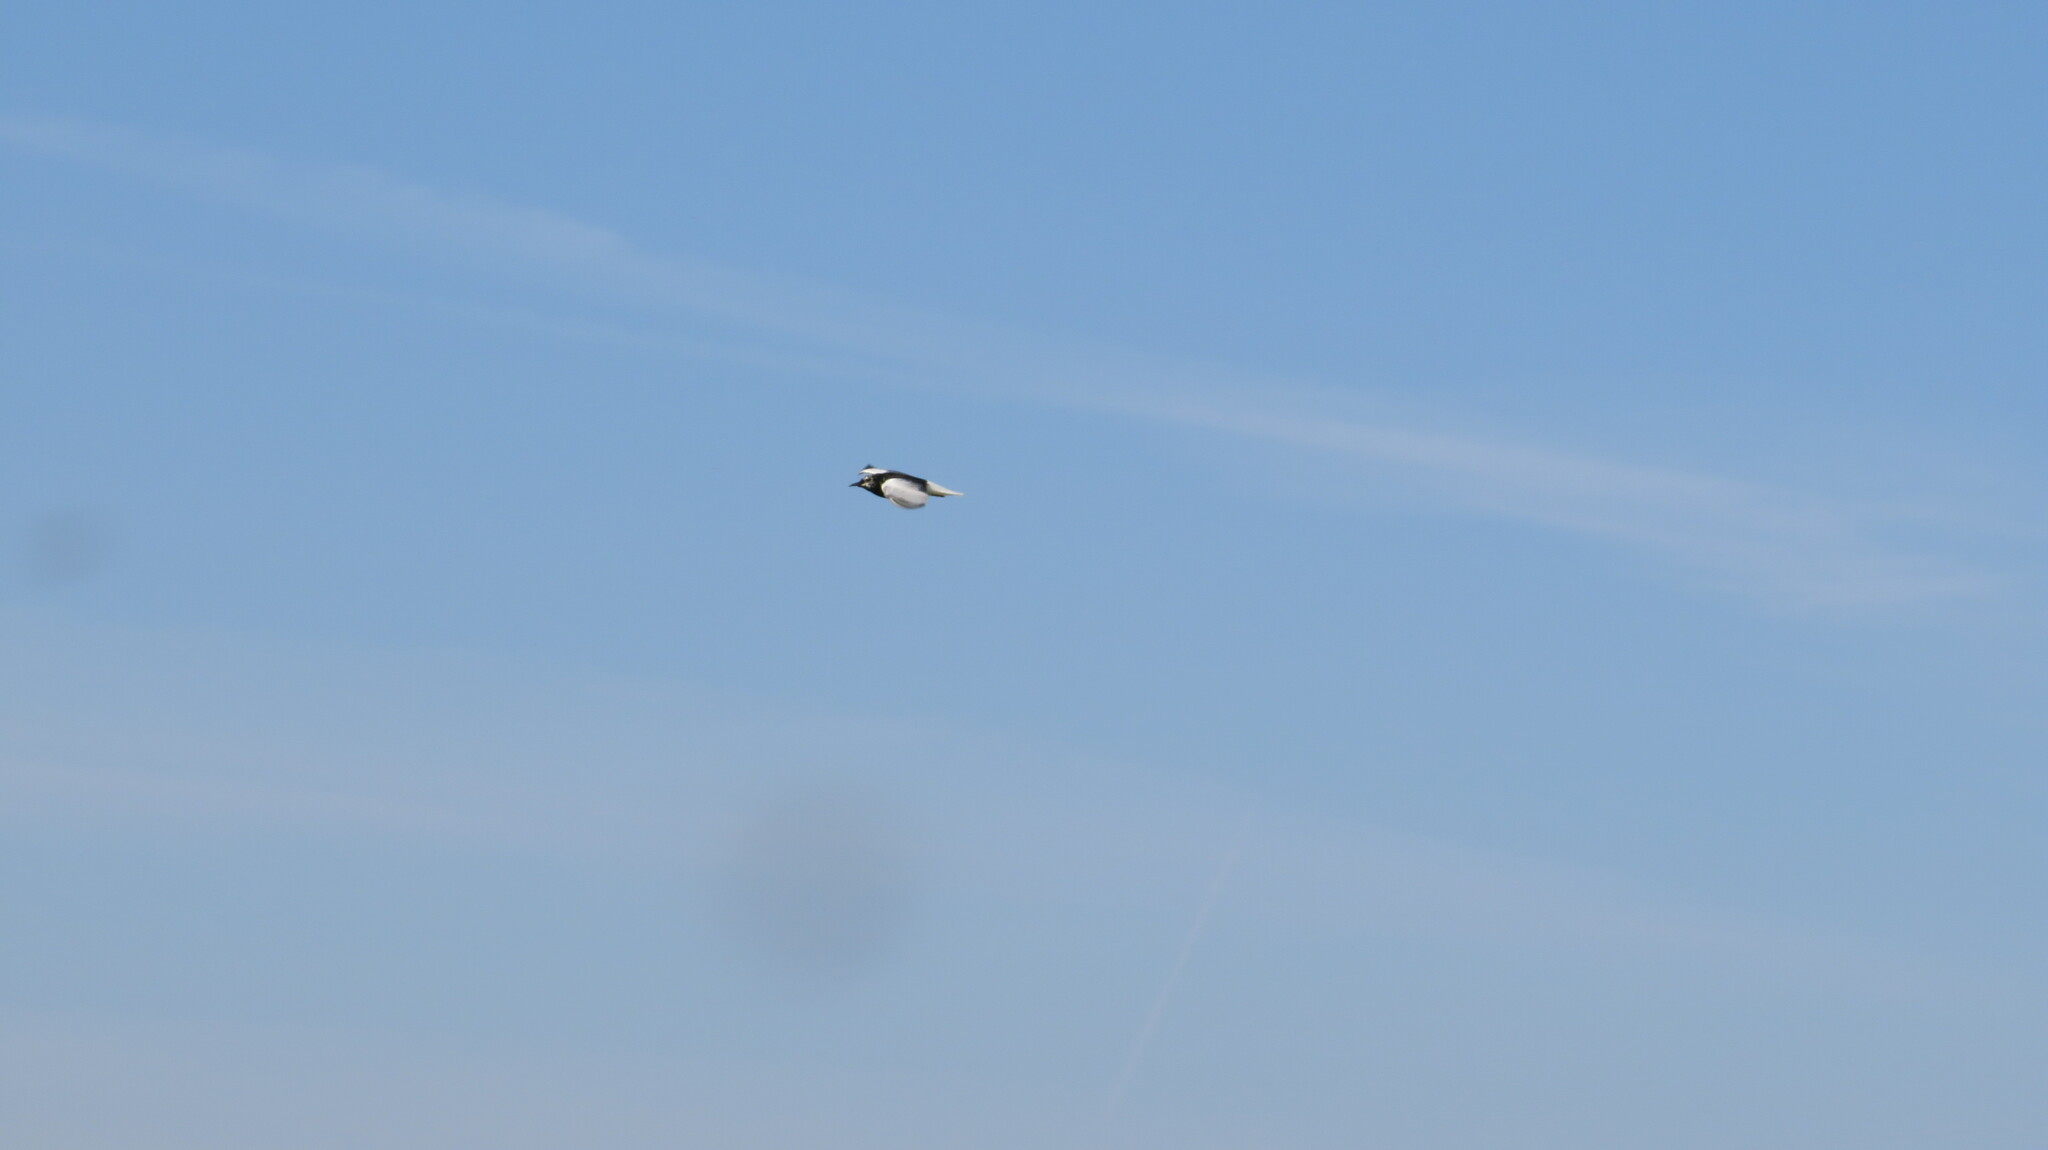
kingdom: Animalia
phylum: Chordata
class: Aves
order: Charadriiformes
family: Laridae
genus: Chlidonias
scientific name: Chlidonias leucopterus
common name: White-winged tern
